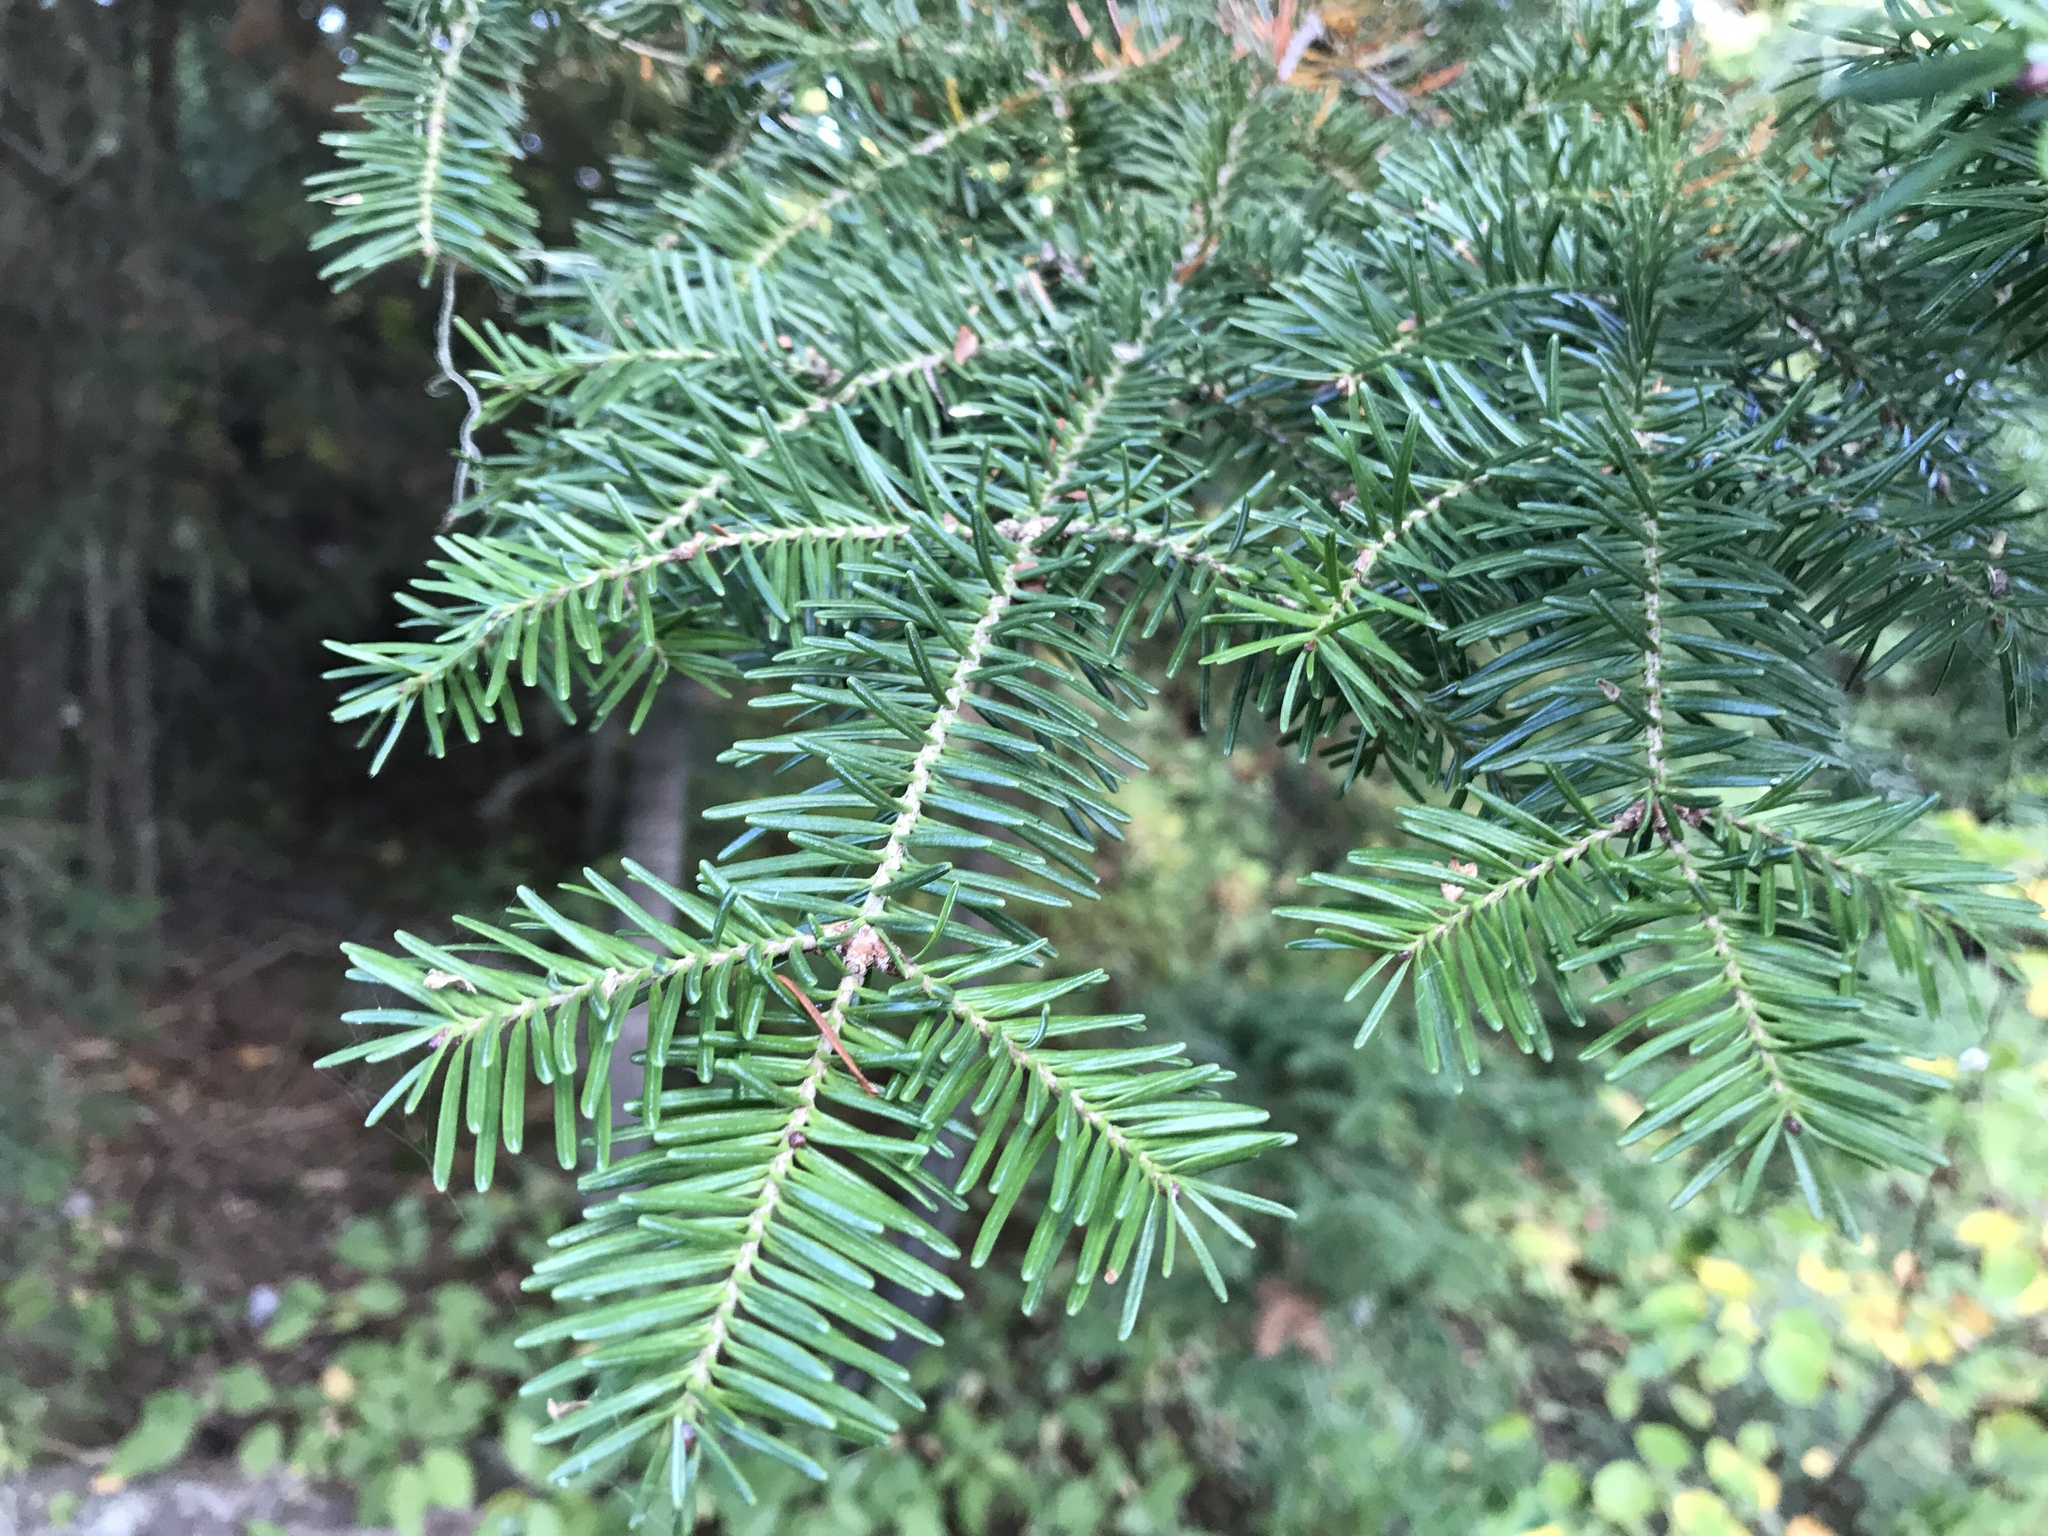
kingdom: Plantae
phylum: Tracheophyta
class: Pinopsida
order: Pinales
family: Pinaceae
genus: Abies
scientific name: Abies balsamea
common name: Balsam fir
